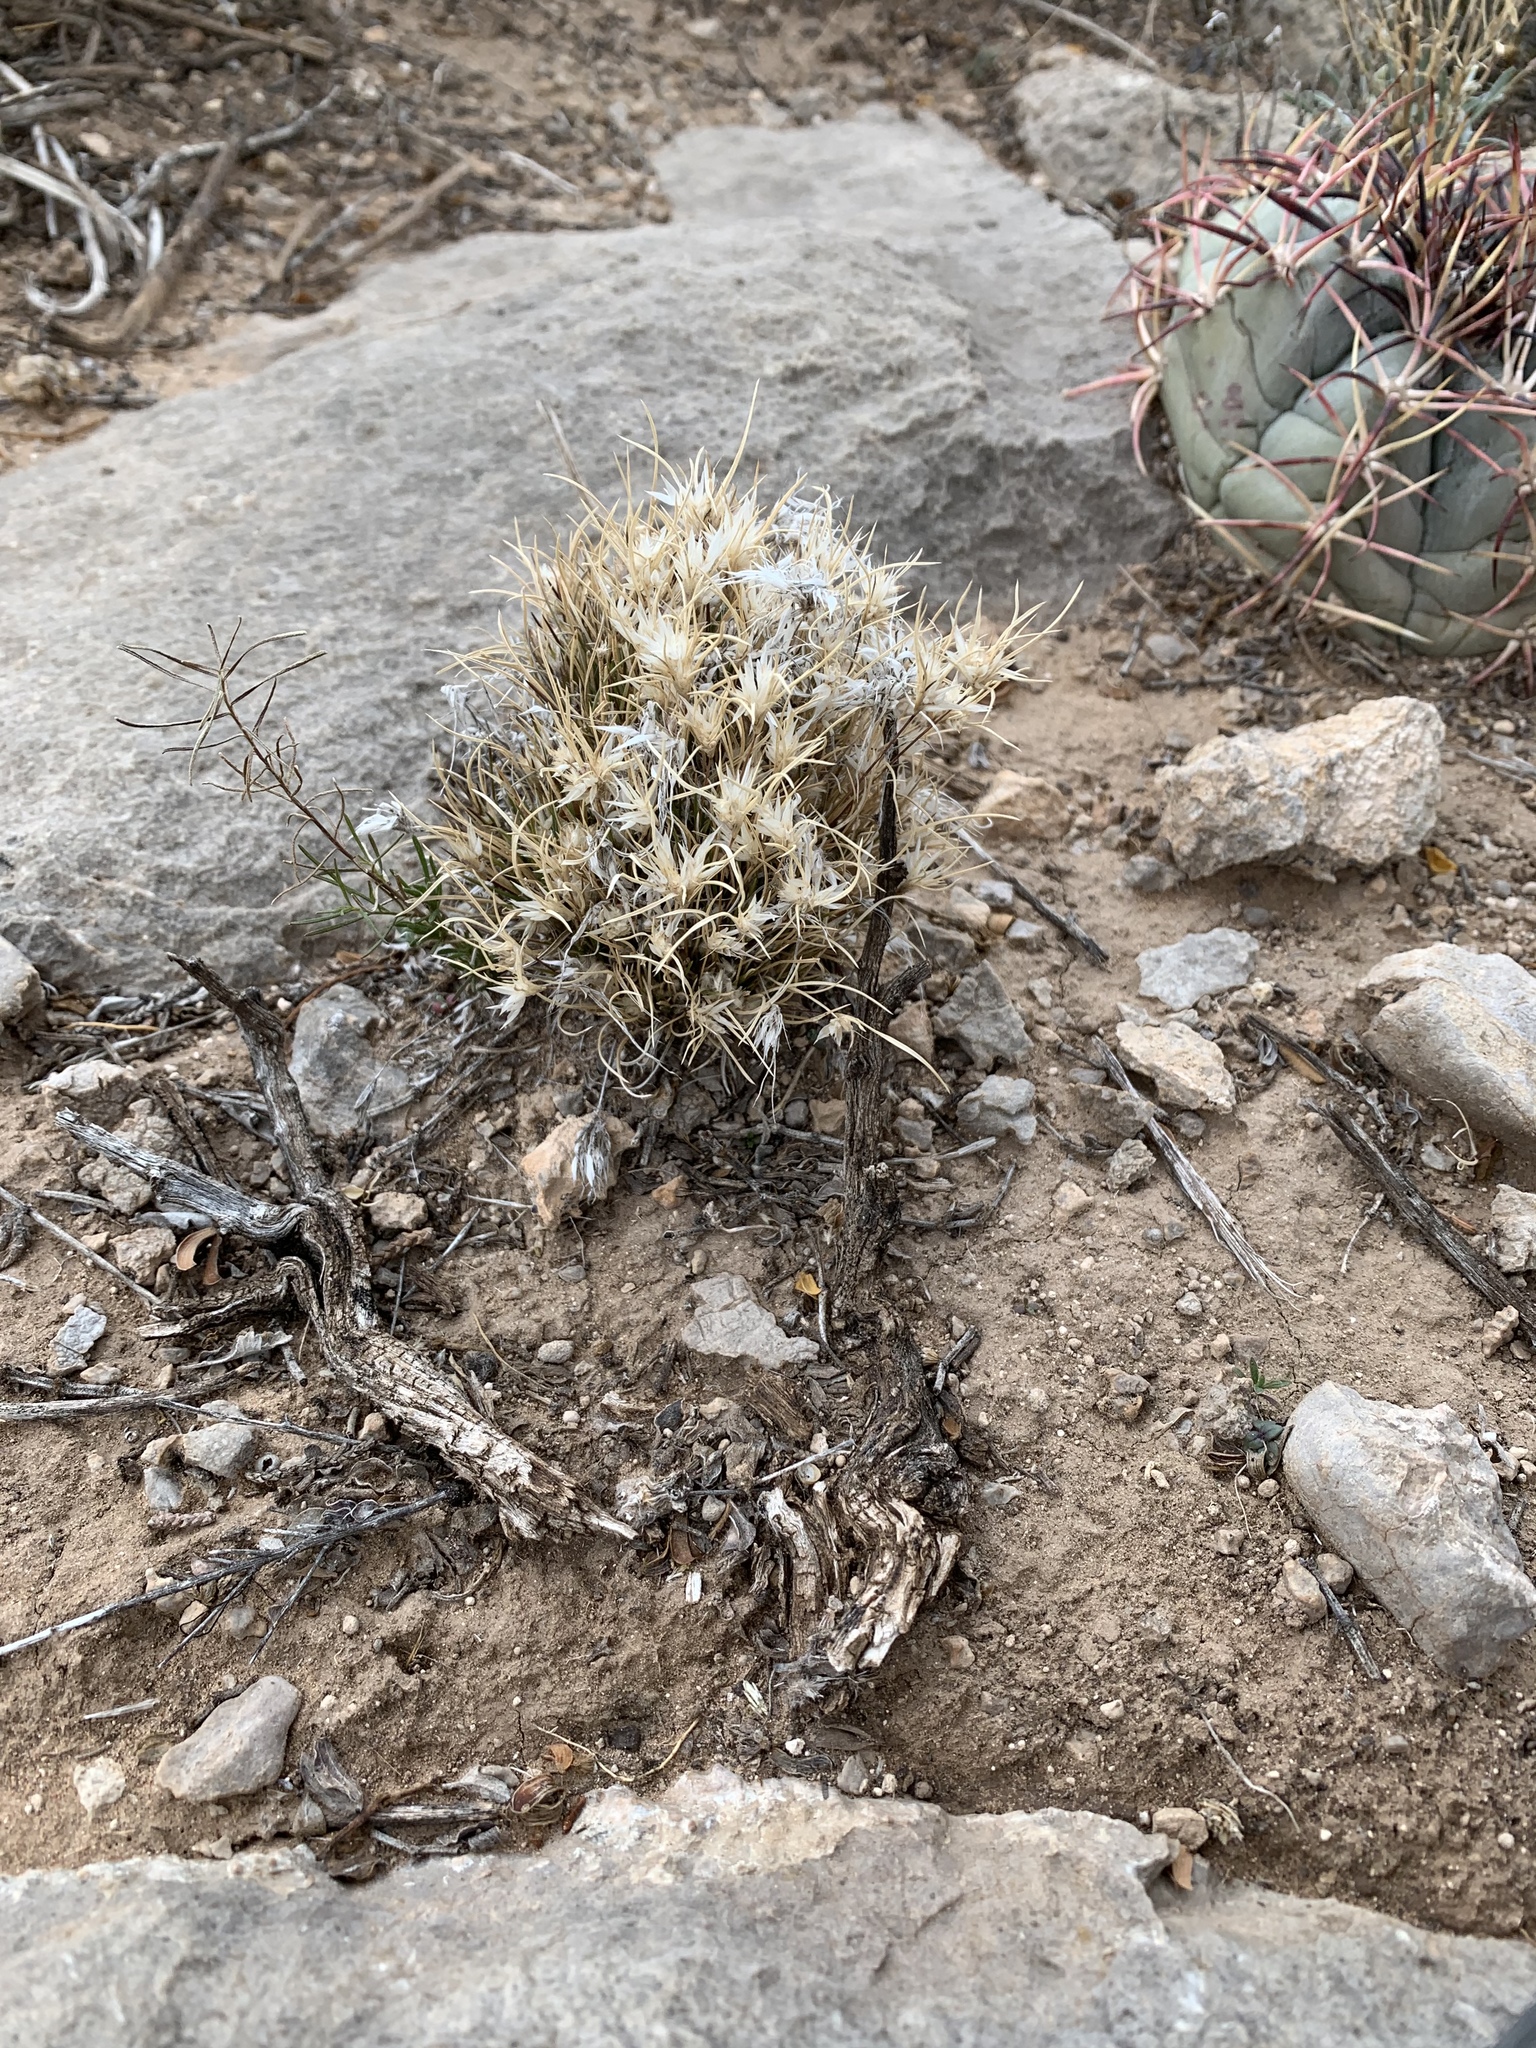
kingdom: Plantae
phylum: Tracheophyta
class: Liliopsida
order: Poales
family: Poaceae
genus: Dasyochloa
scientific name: Dasyochloa pulchella
